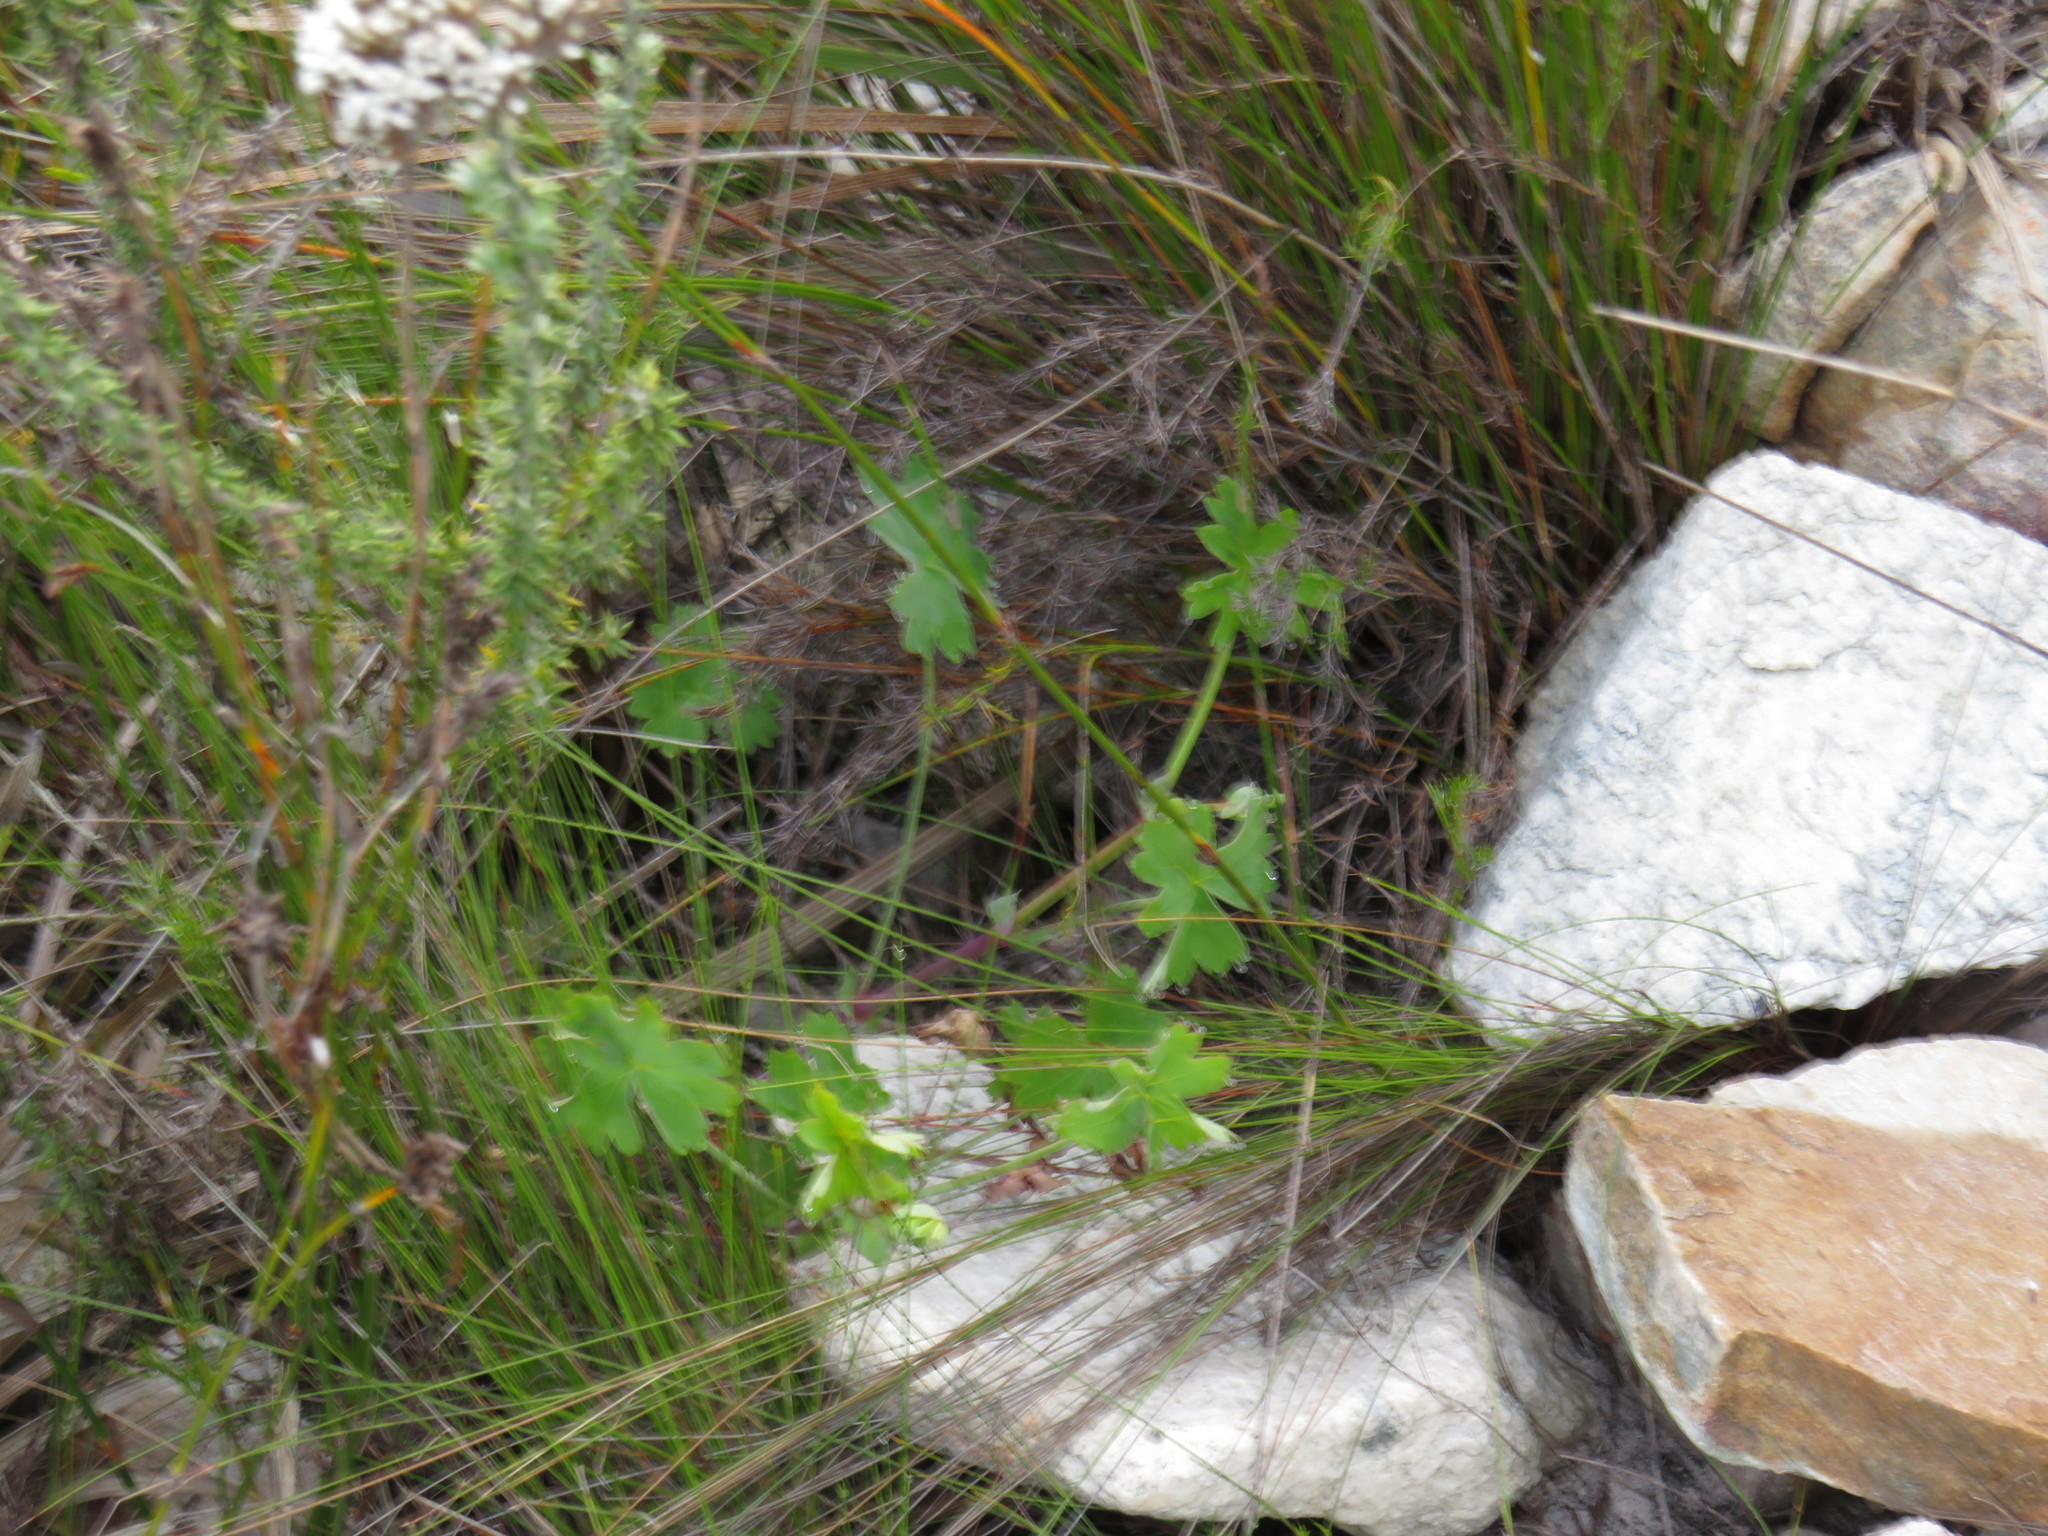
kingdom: Plantae
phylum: Tracheophyta
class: Magnoliopsida
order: Geraniales
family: Geraniaceae
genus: Pelargonium
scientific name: Pelargonium patulum
